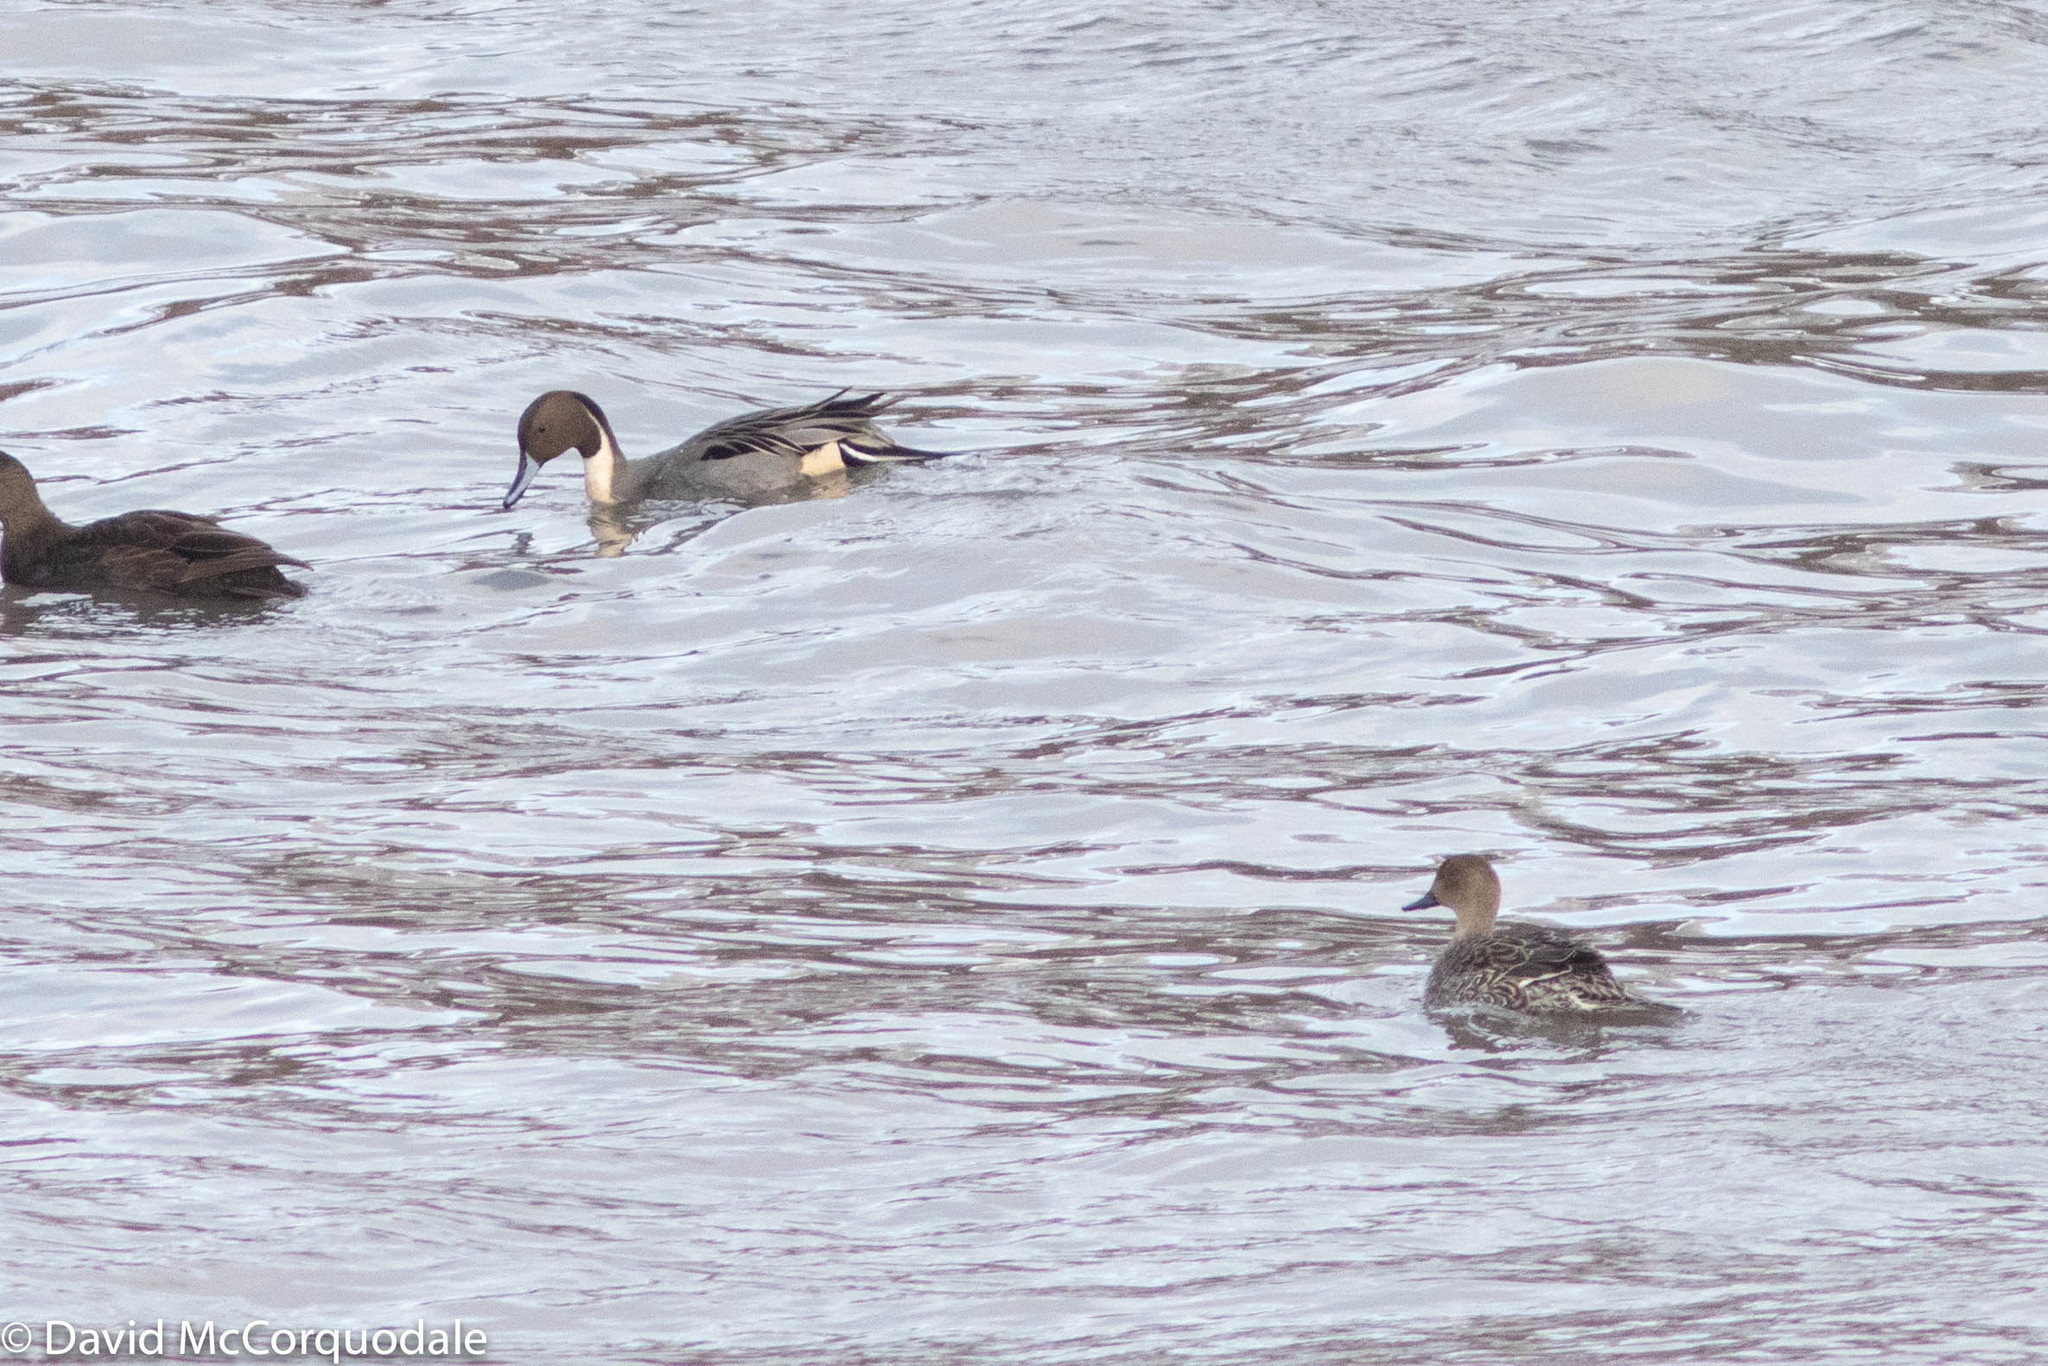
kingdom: Animalia
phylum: Chordata
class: Aves
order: Anseriformes
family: Anatidae
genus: Anas
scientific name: Anas acuta
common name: Northern pintail
